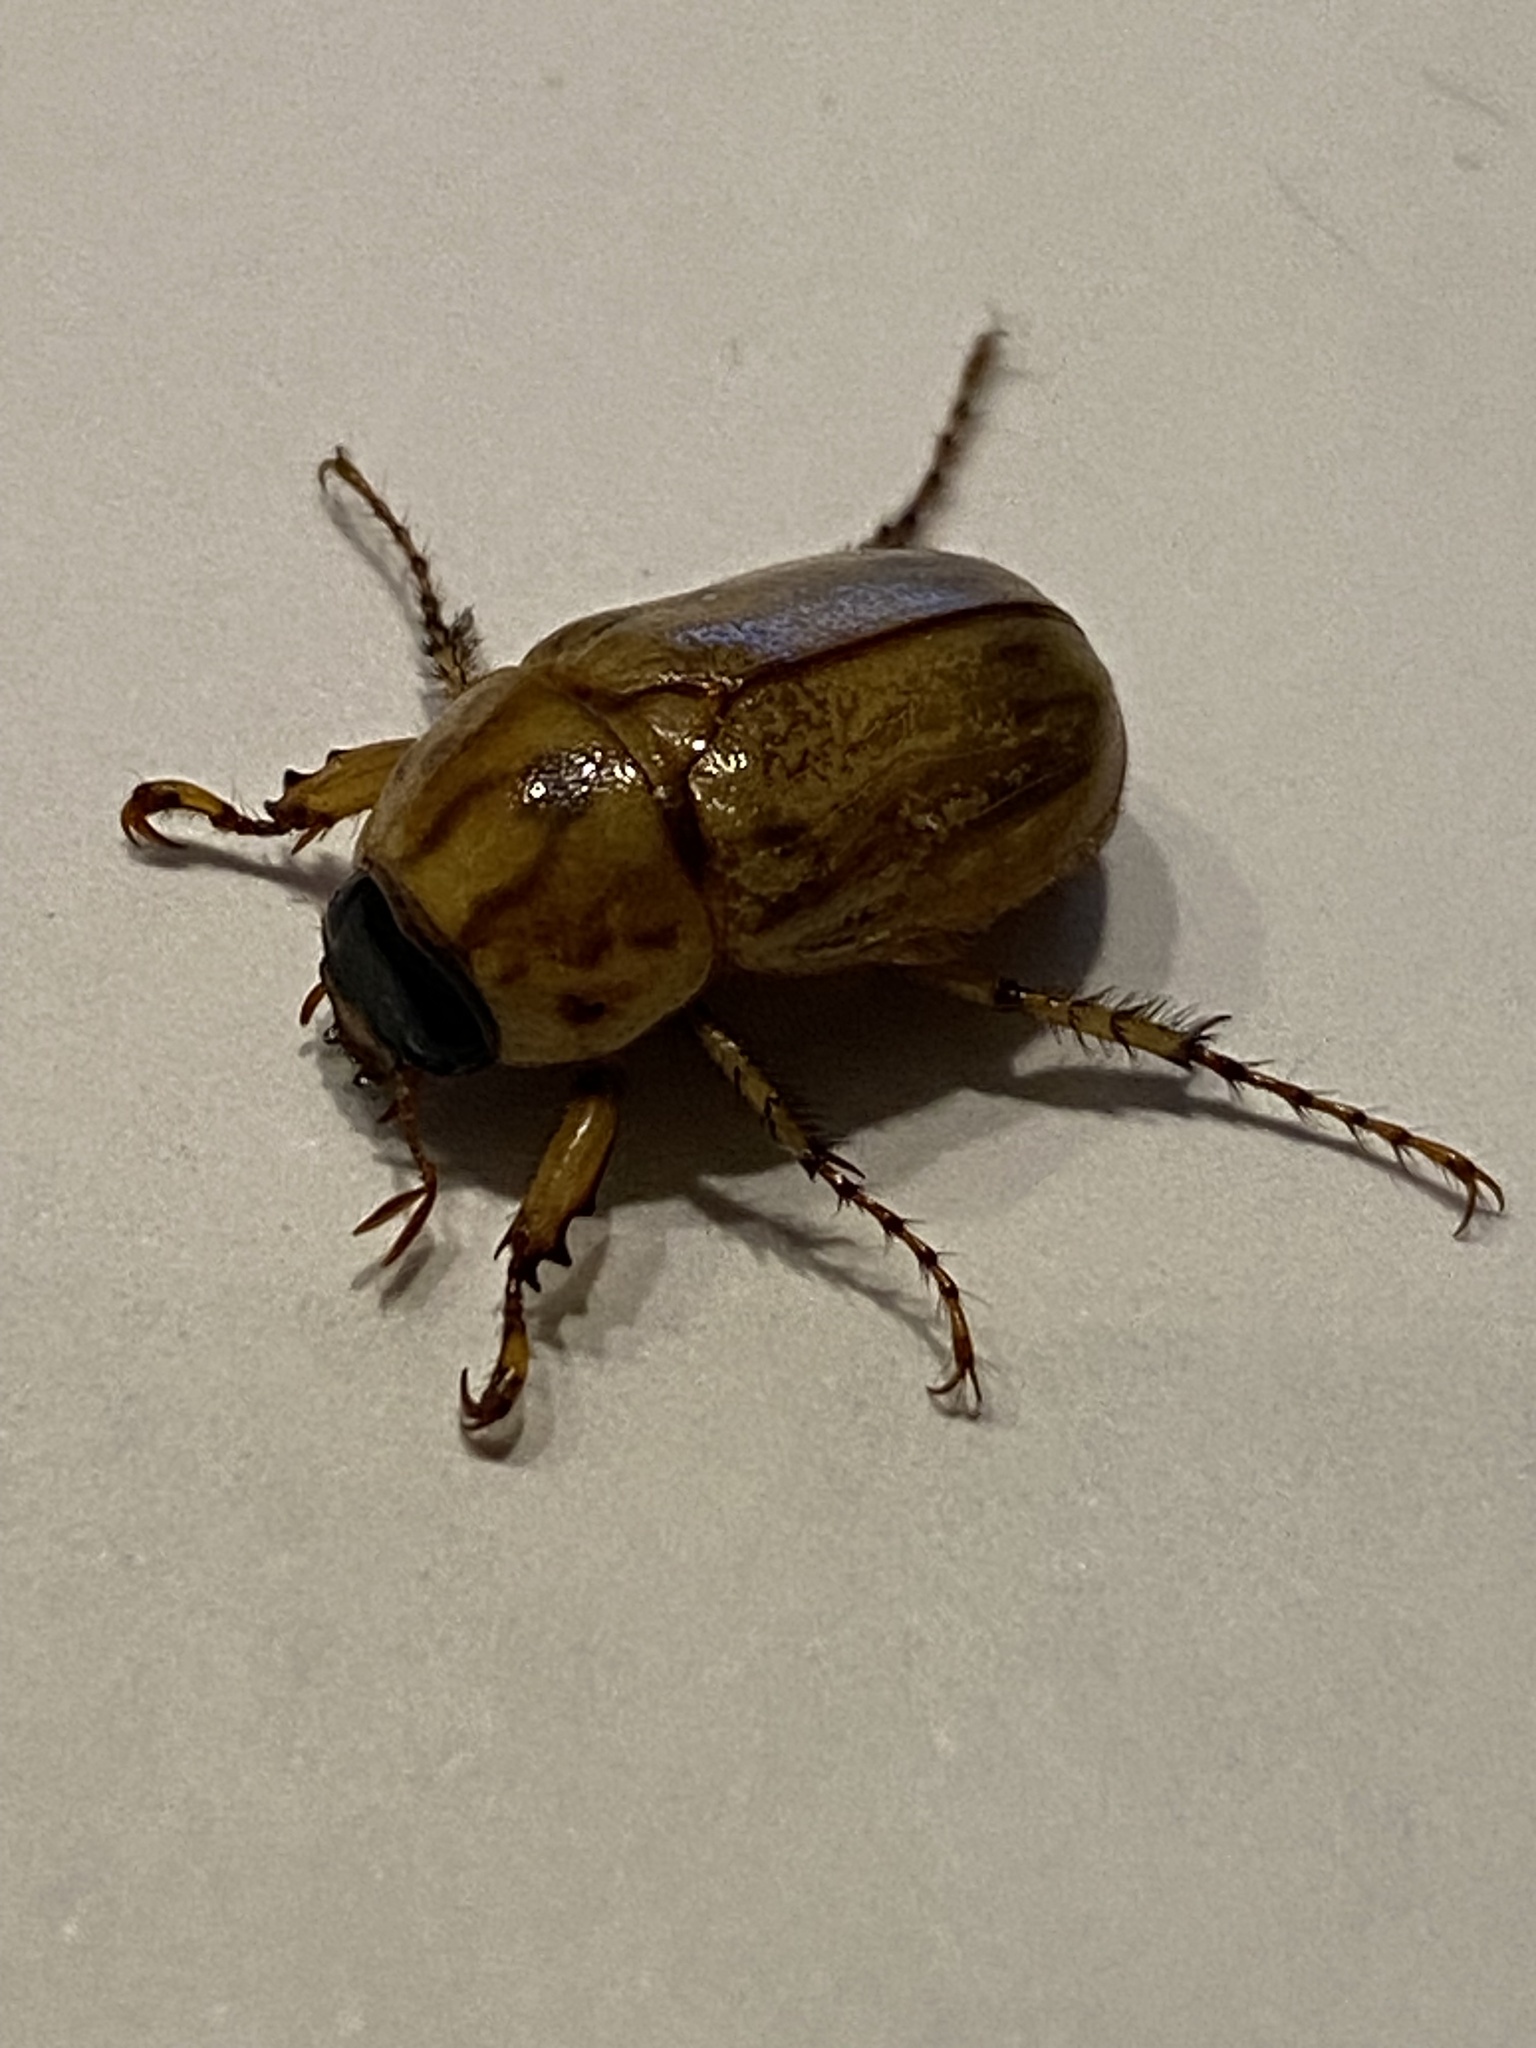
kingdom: Animalia
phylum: Arthropoda
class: Insecta
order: Coleoptera
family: Scarabaeidae
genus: Cyclocephala
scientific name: Cyclocephala signaticollis
